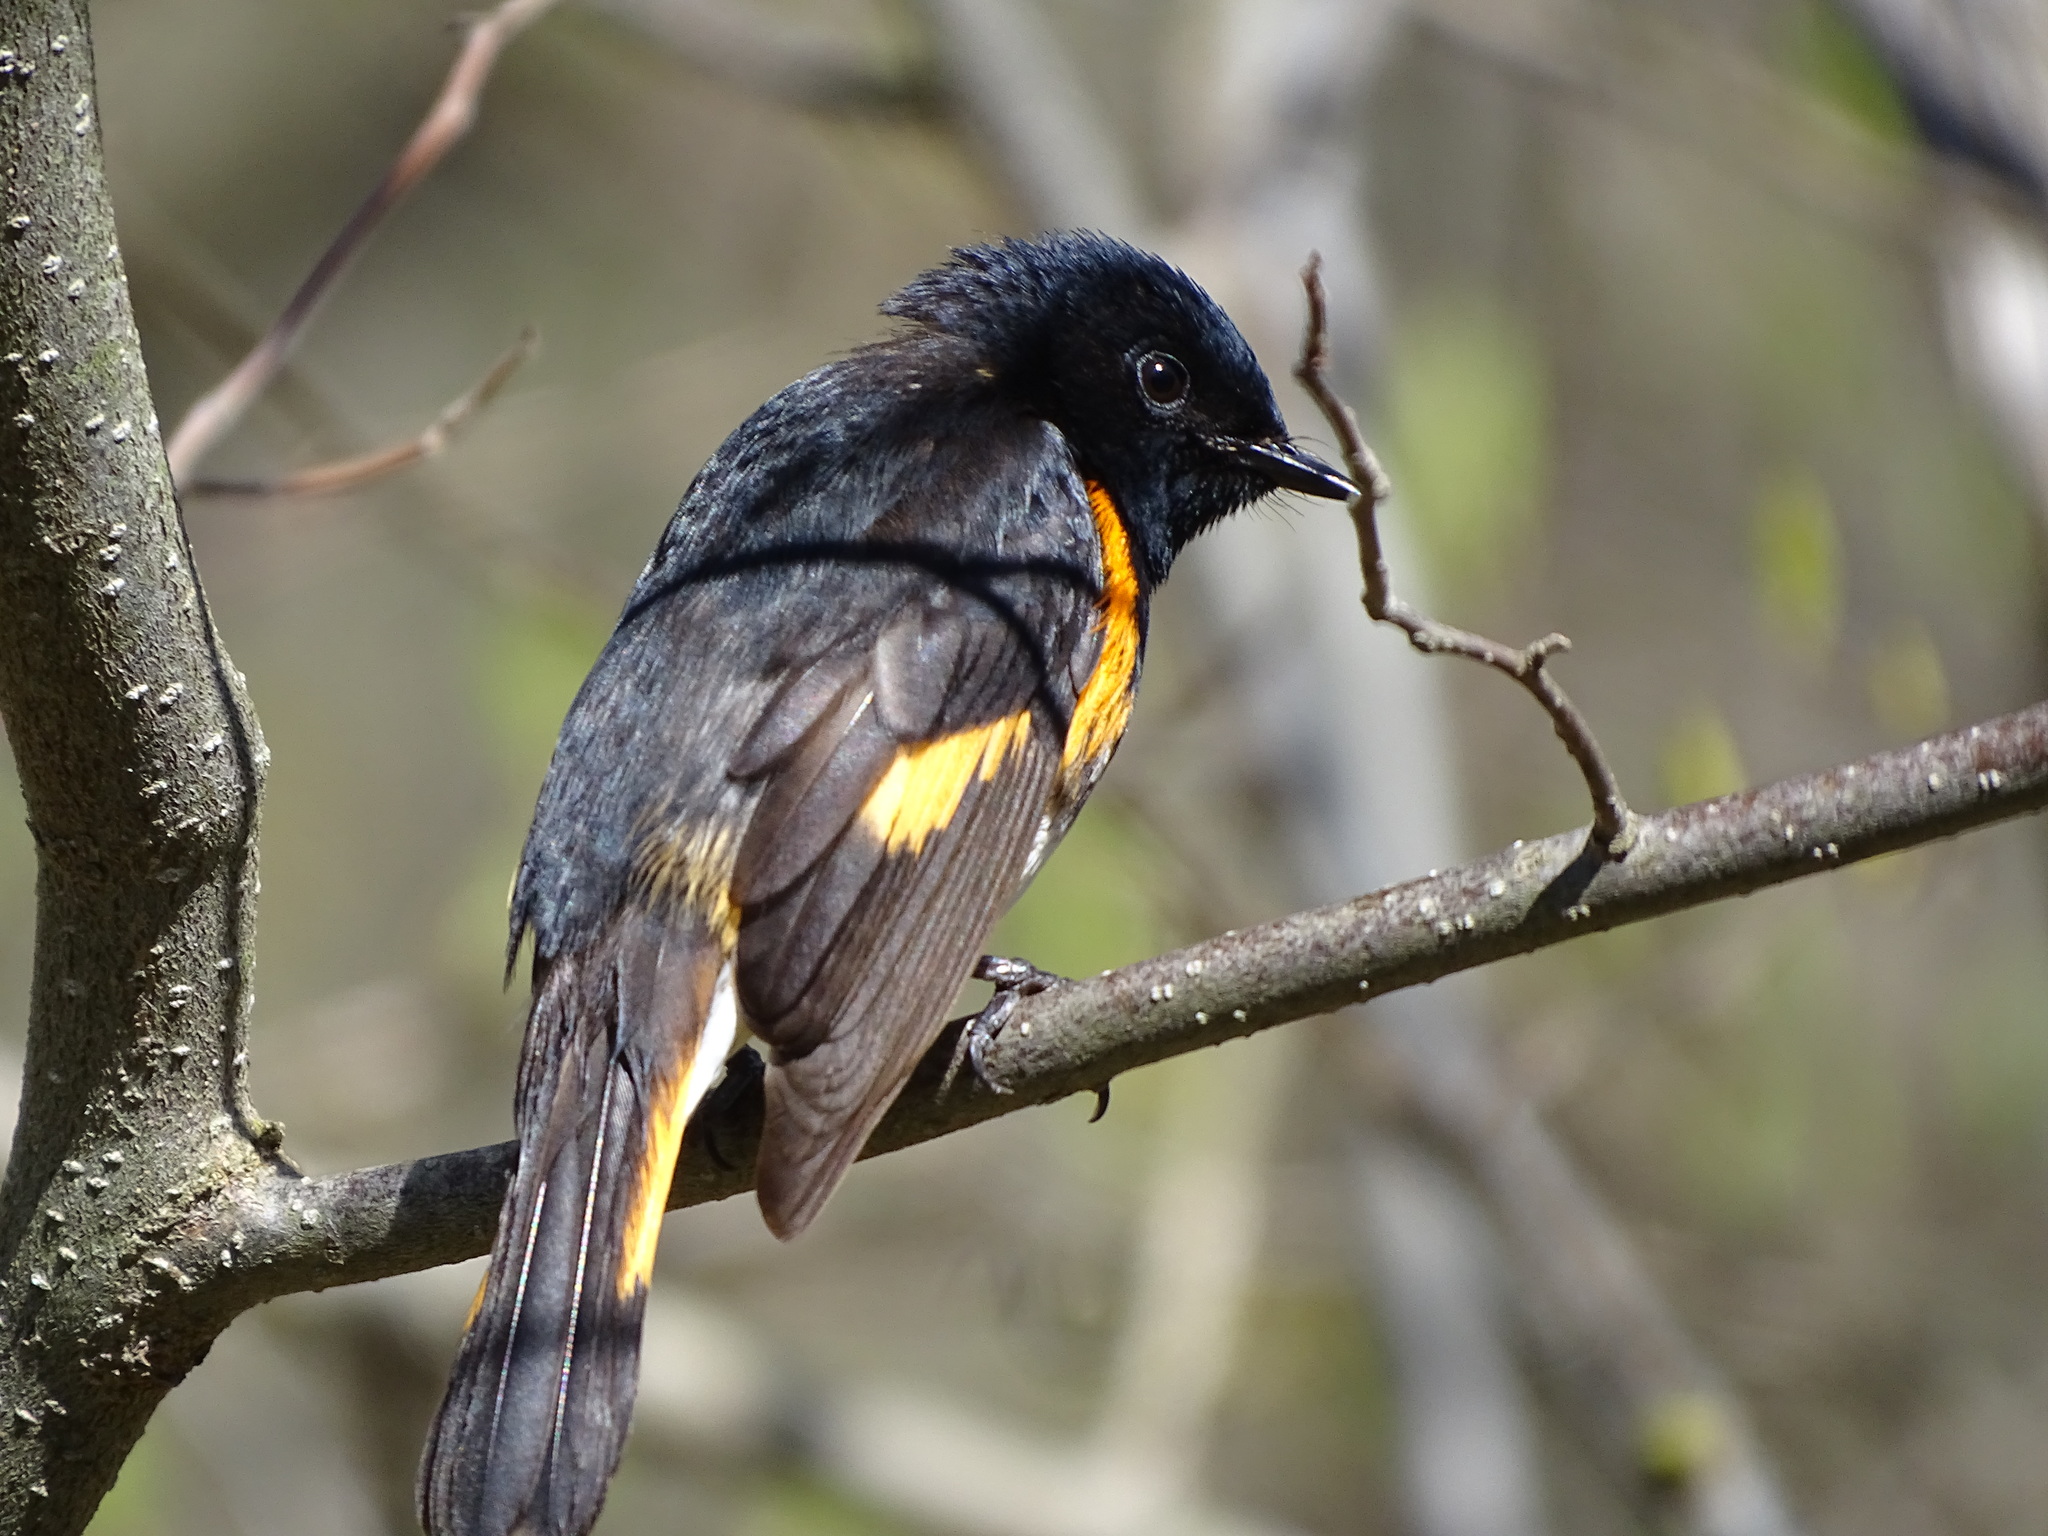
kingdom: Animalia
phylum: Chordata
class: Aves
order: Passeriformes
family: Parulidae
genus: Setophaga
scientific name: Setophaga ruticilla
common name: American redstart
